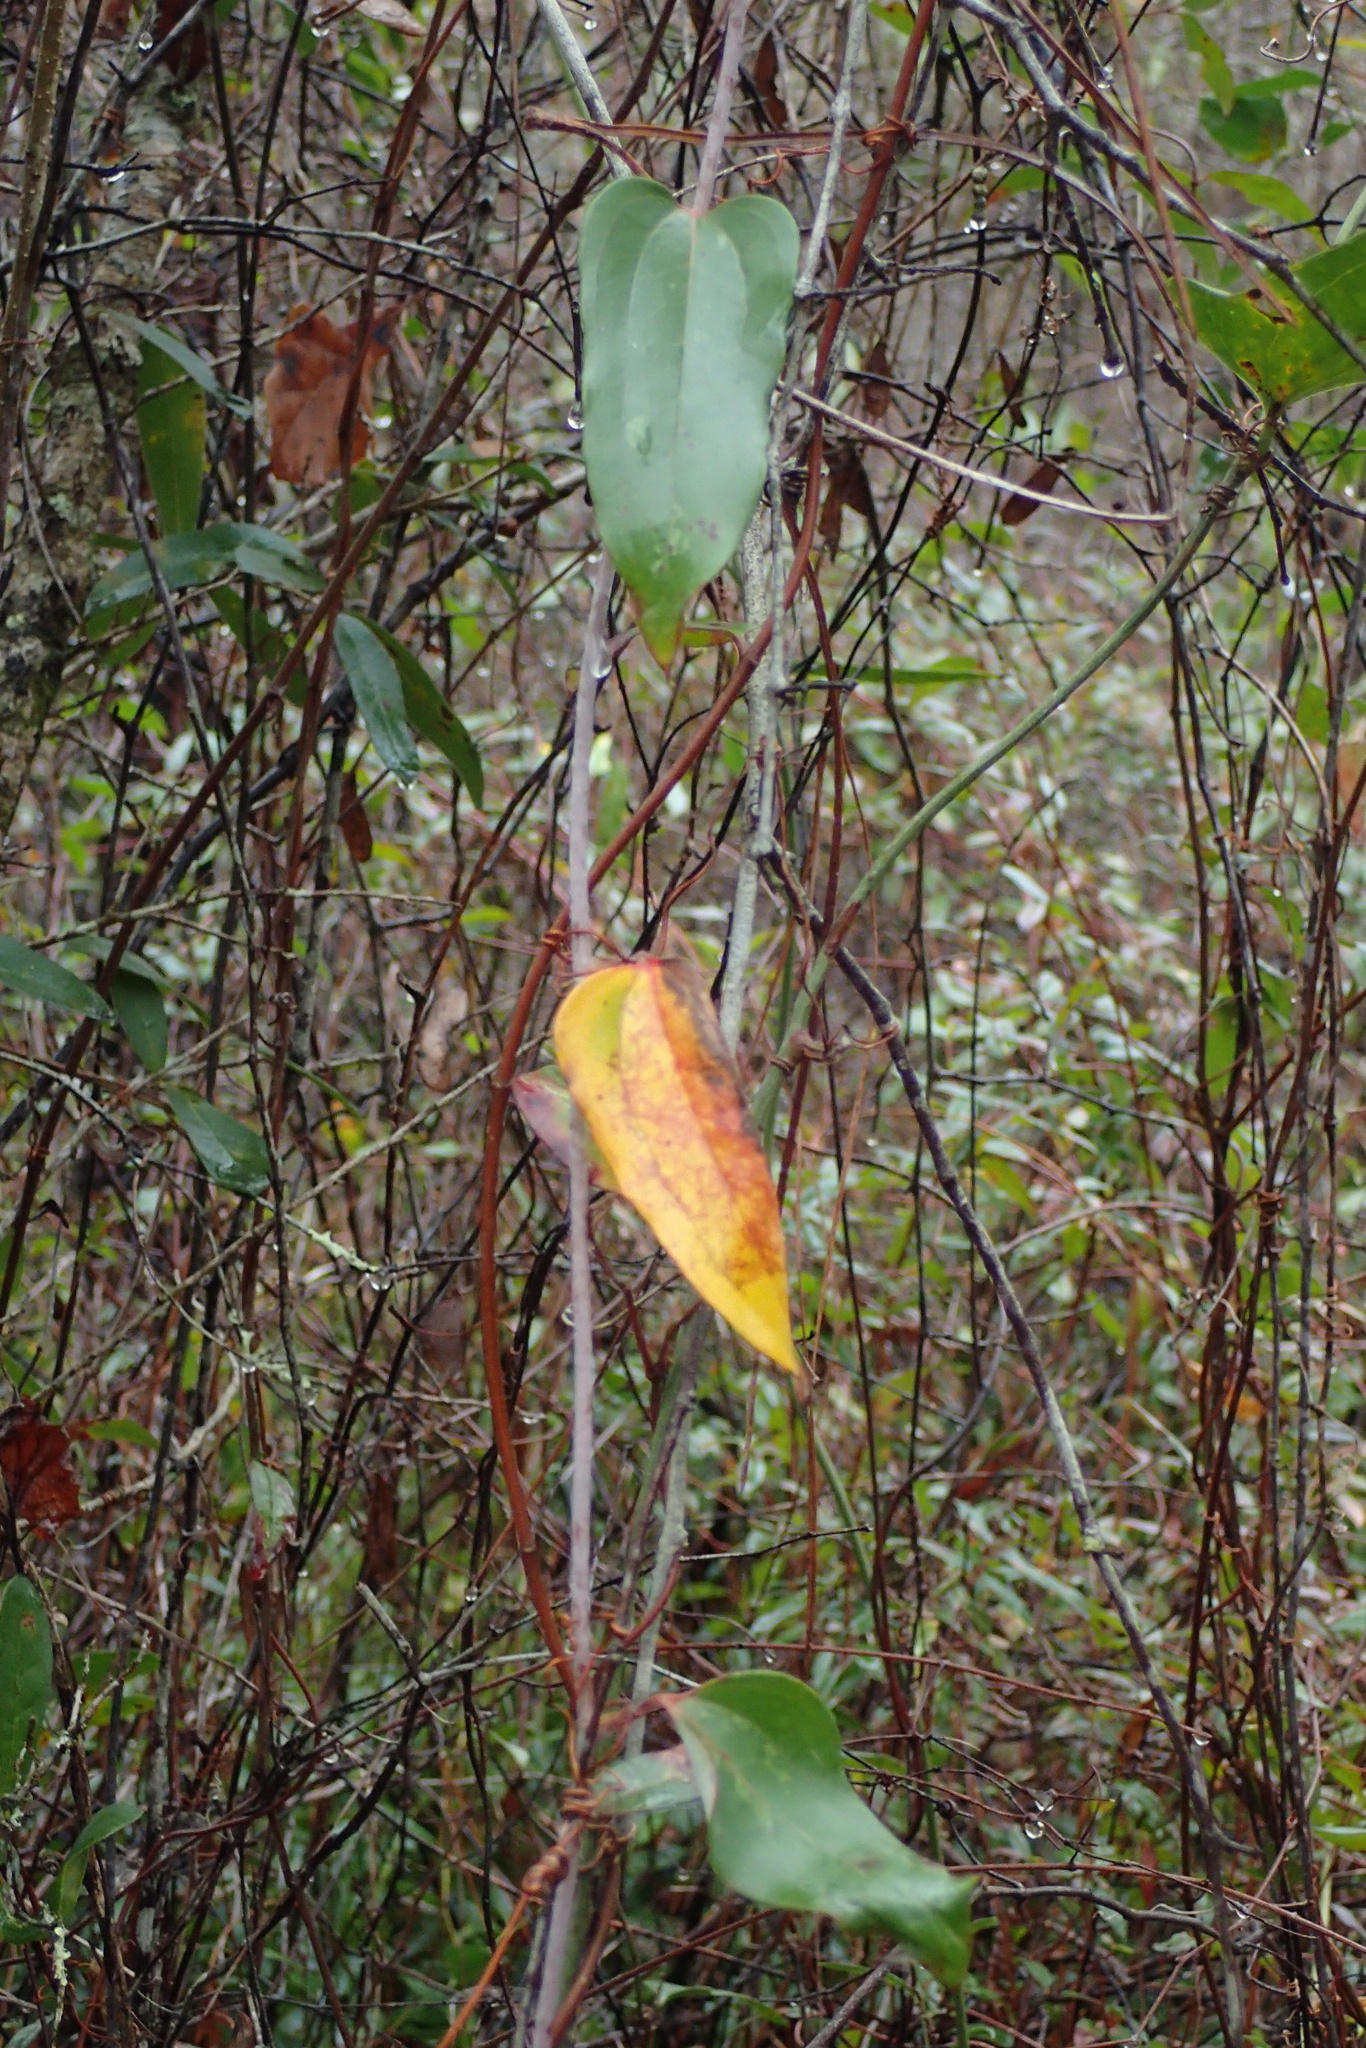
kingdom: Plantae
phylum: Tracheophyta
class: Liliopsida
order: Liliales
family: Smilacaceae
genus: Smilax
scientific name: Smilax glauca
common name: Cat greenbrier
